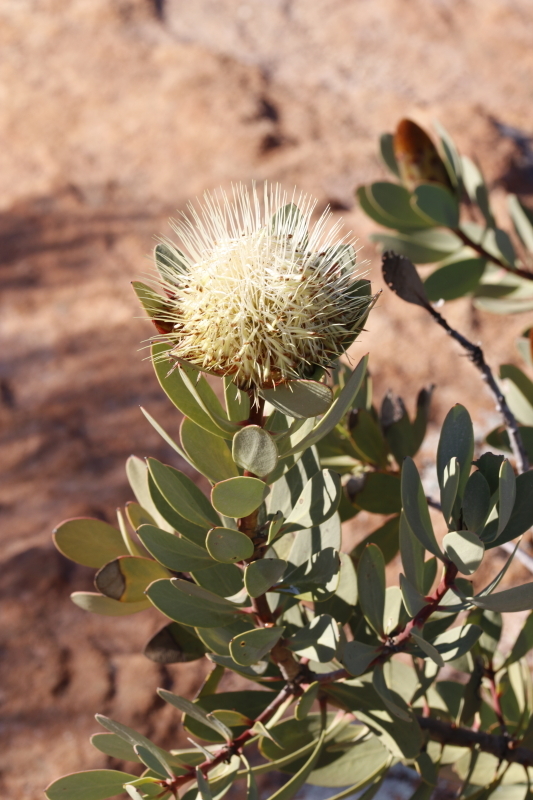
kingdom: Plantae
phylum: Tracheophyta
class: Magnoliopsida
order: Proteales
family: Proteaceae
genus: Protea
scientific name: Protea glabra
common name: Chestnut sugarbush
